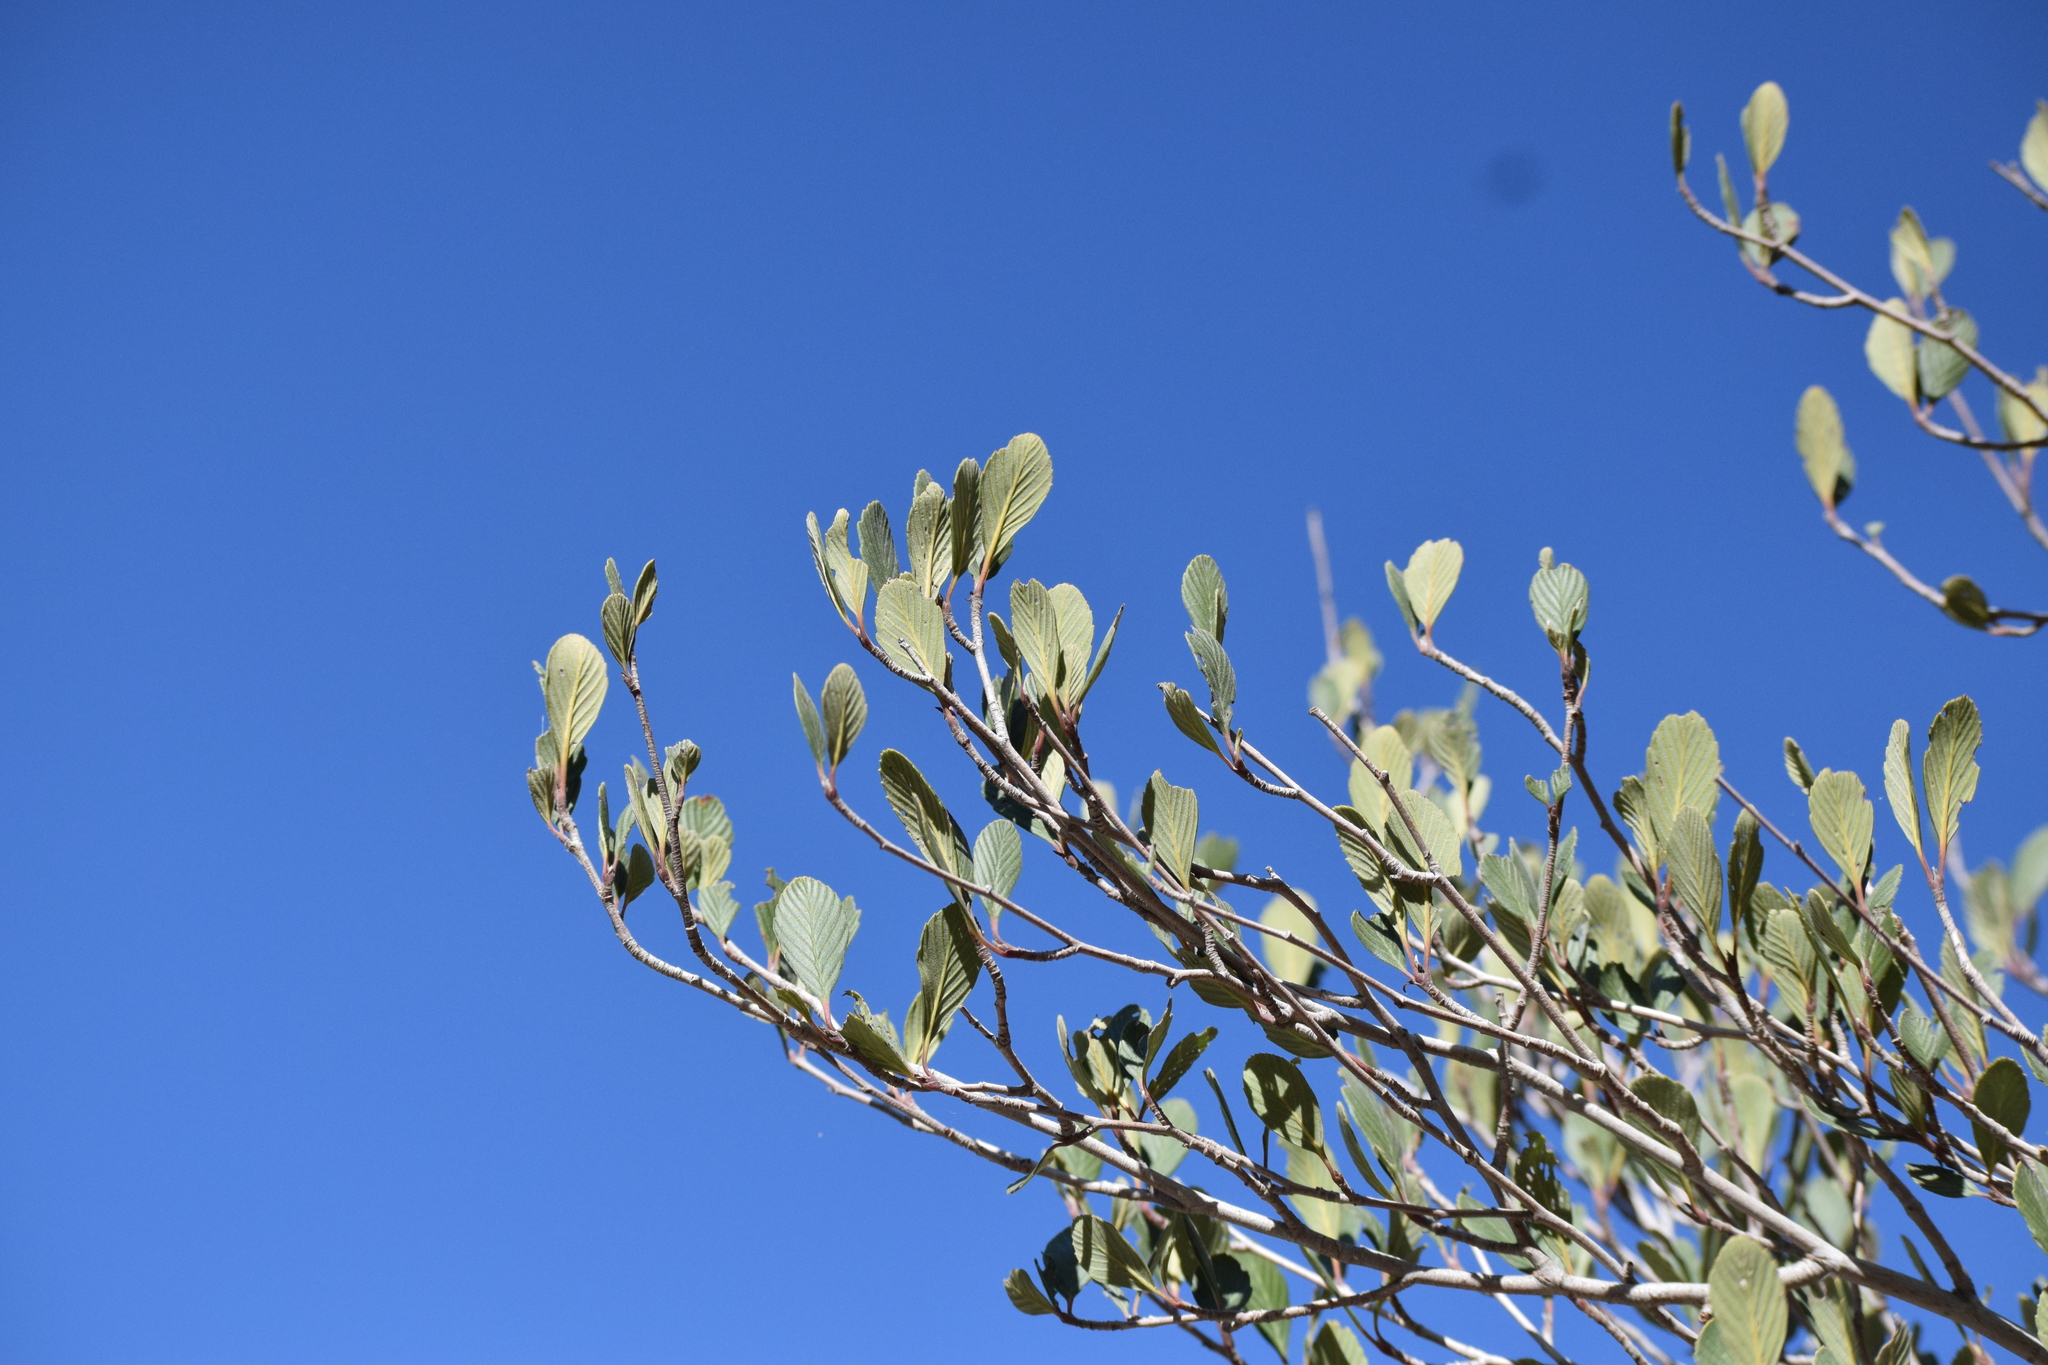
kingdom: Plantae
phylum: Tracheophyta
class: Magnoliopsida
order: Rosales
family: Rosaceae
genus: Cercocarpus
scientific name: Cercocarpus betuloides
